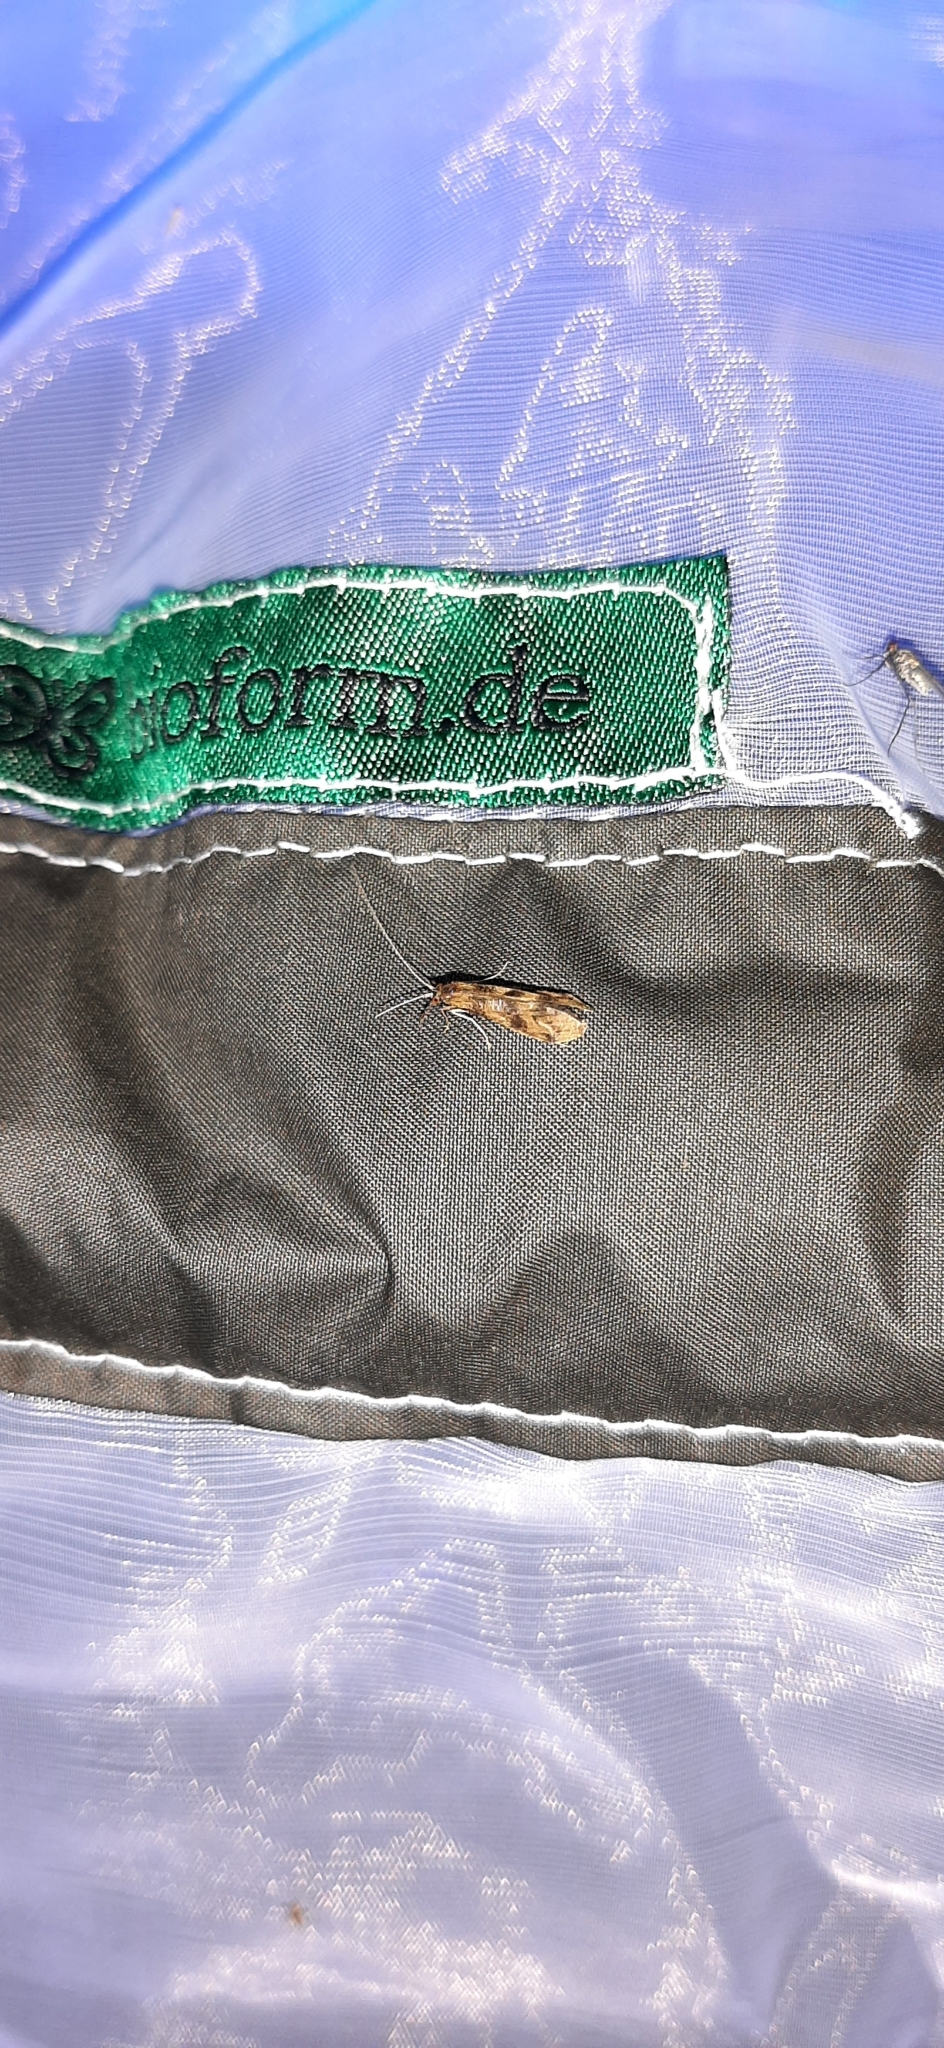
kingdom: Animalia
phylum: Arthropoda
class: Insecta
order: Trichoptera
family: Leptoceridae
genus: Mystacides
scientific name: Mystacides longicornis
